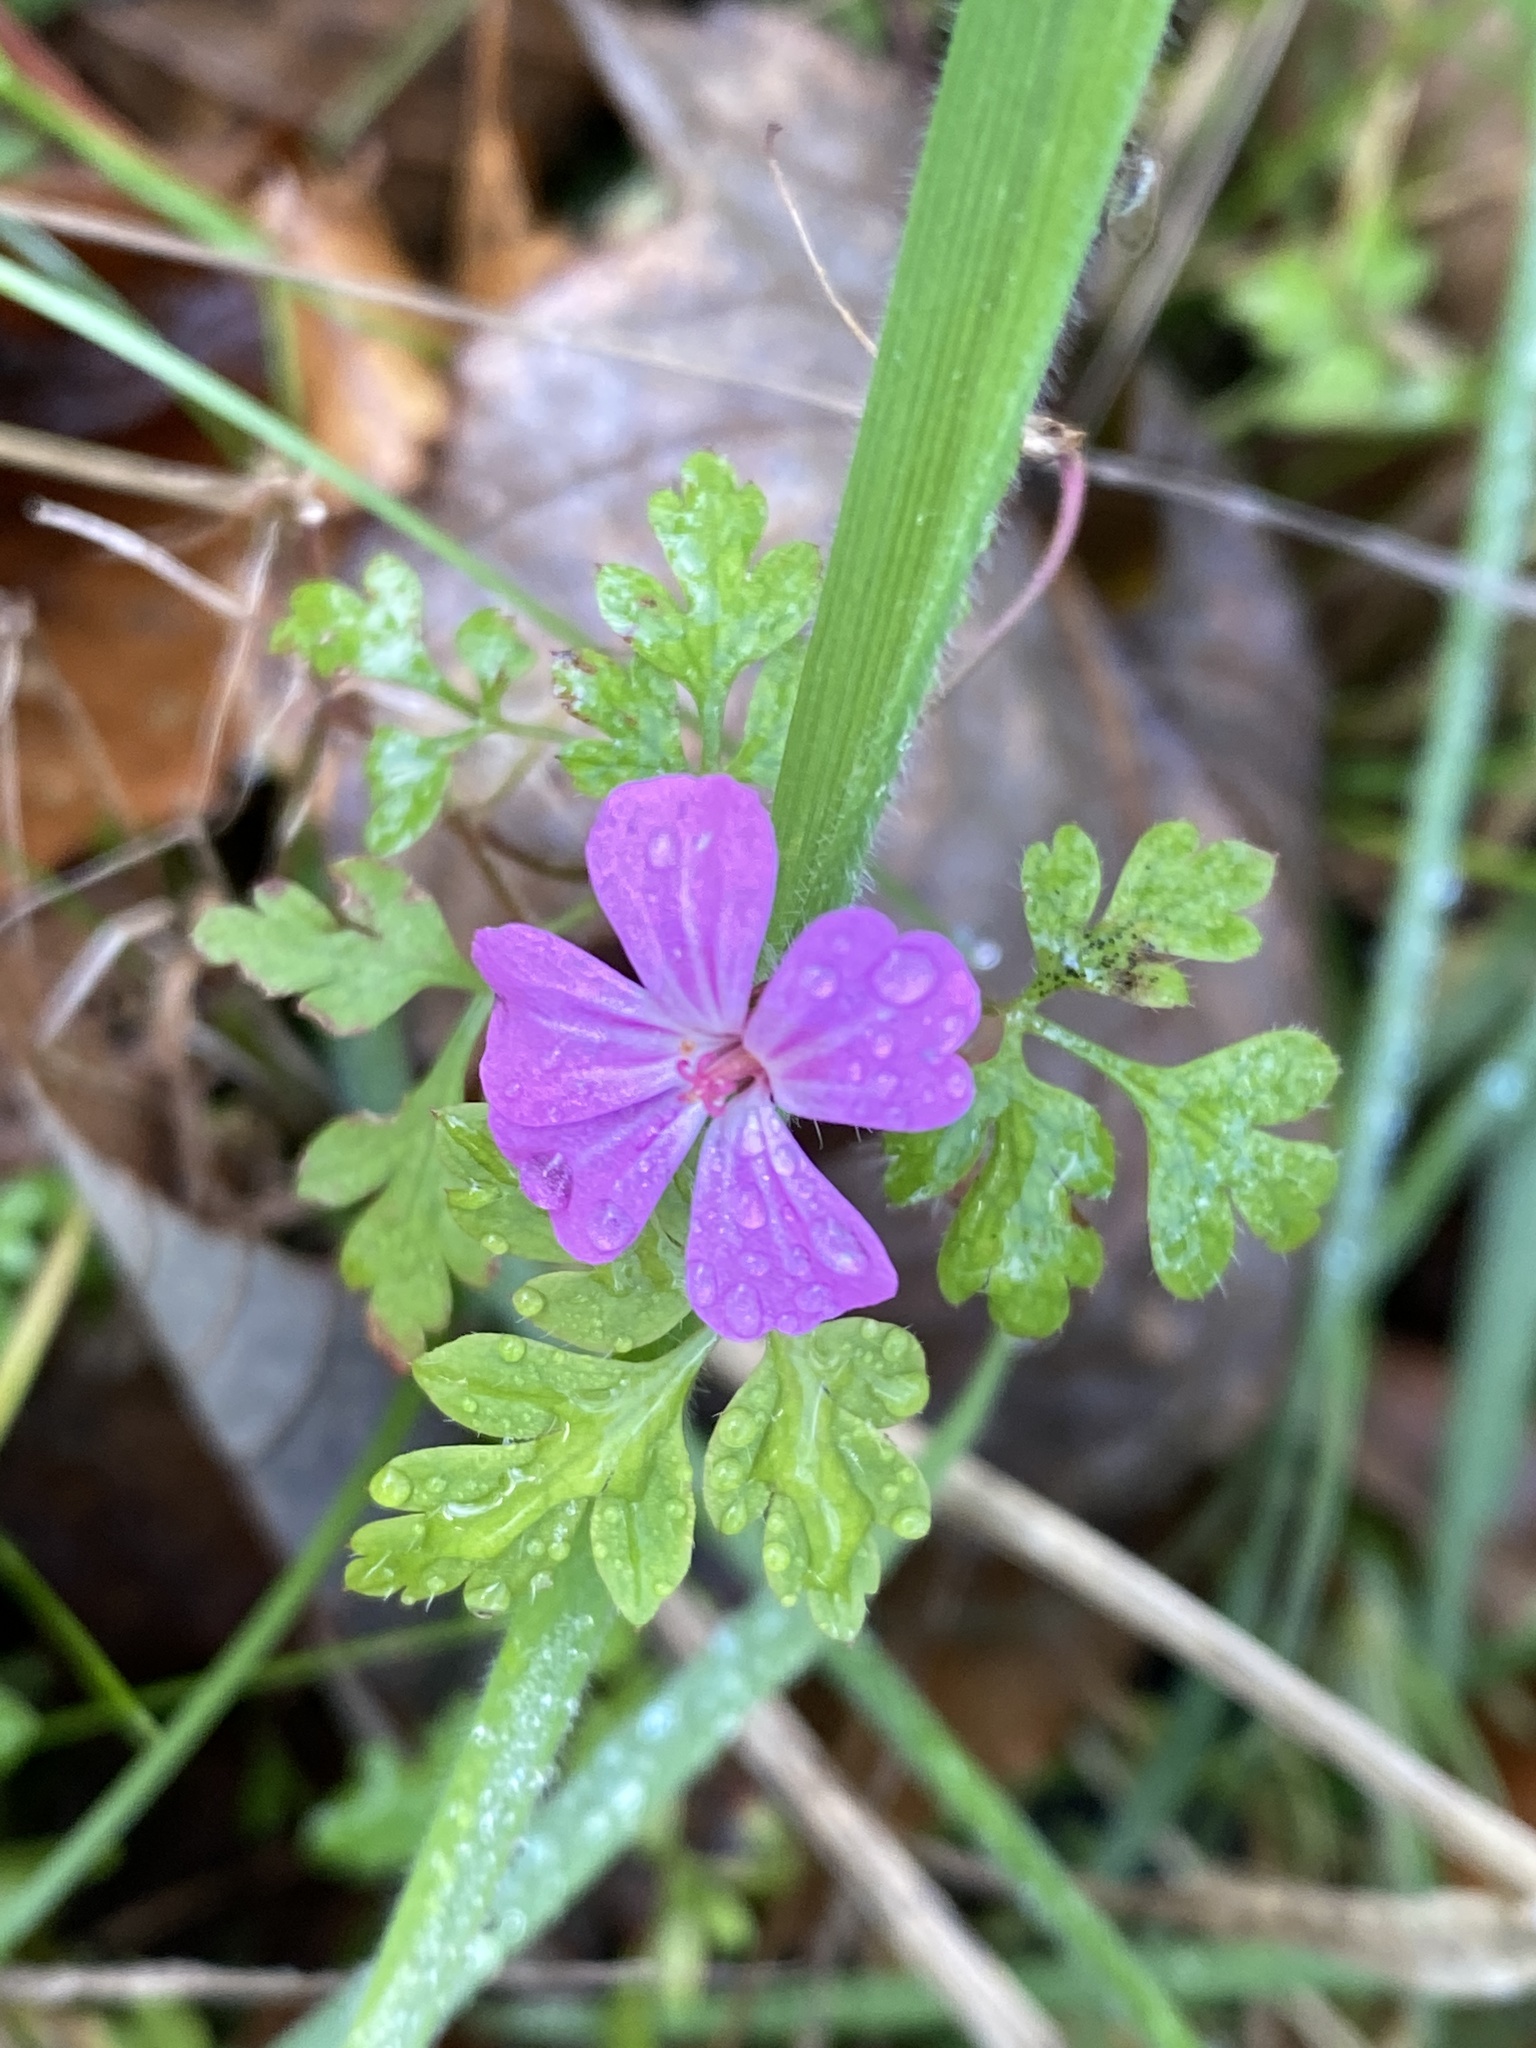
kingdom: Plantae
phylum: Tracheophyta
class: Magnoliopsida
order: Geraniales
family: Geraniaceae
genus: Geranium
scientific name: Geranium robertianum
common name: Herb-robert
